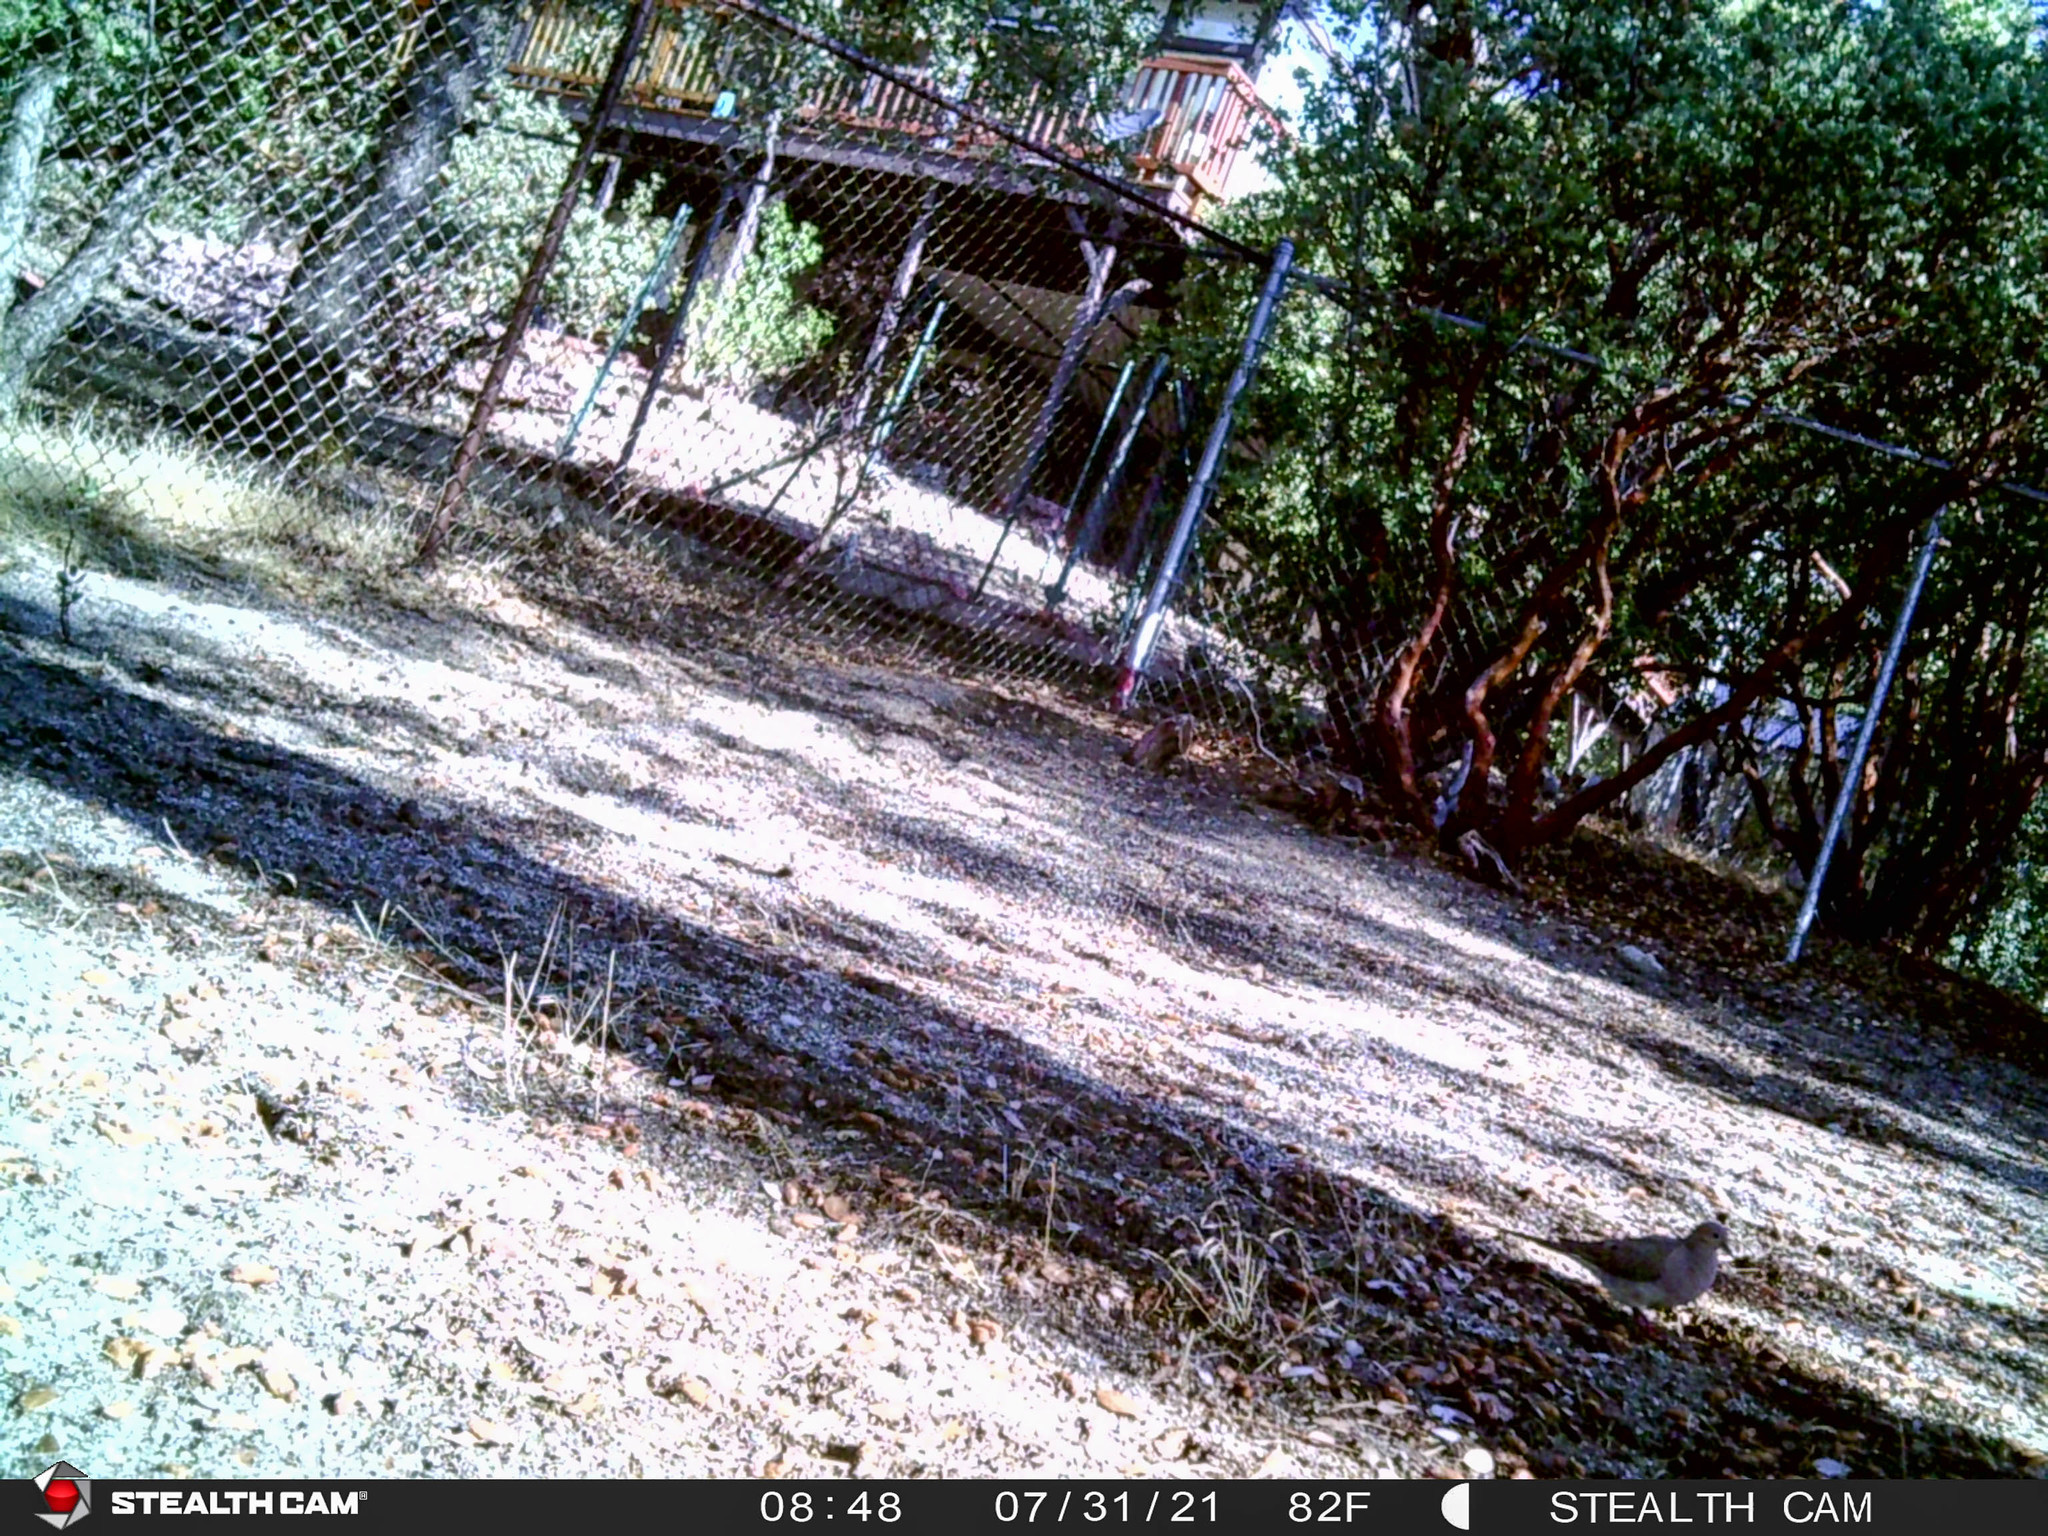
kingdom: Animalia
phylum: Chordata
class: Aves
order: Columbiformes
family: Columbidae
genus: Zenaida
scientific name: Zenaida macroura
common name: Mourning dove
